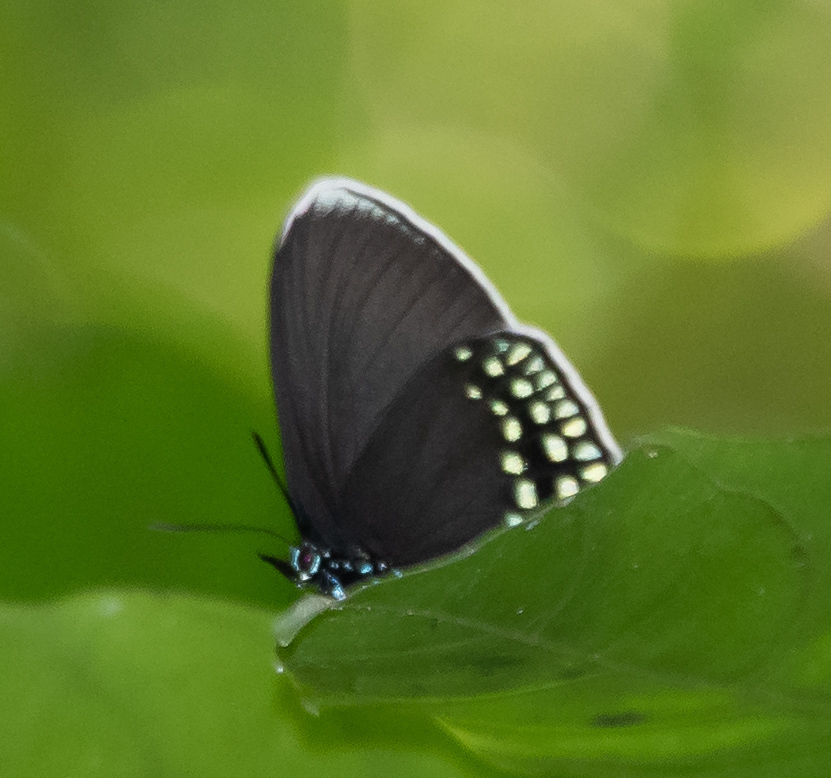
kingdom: Animalia
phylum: Arthropoda
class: Insecta
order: Lepidoptera
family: Lycaenidae
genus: Eumaeus
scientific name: Eumaeus godartii
